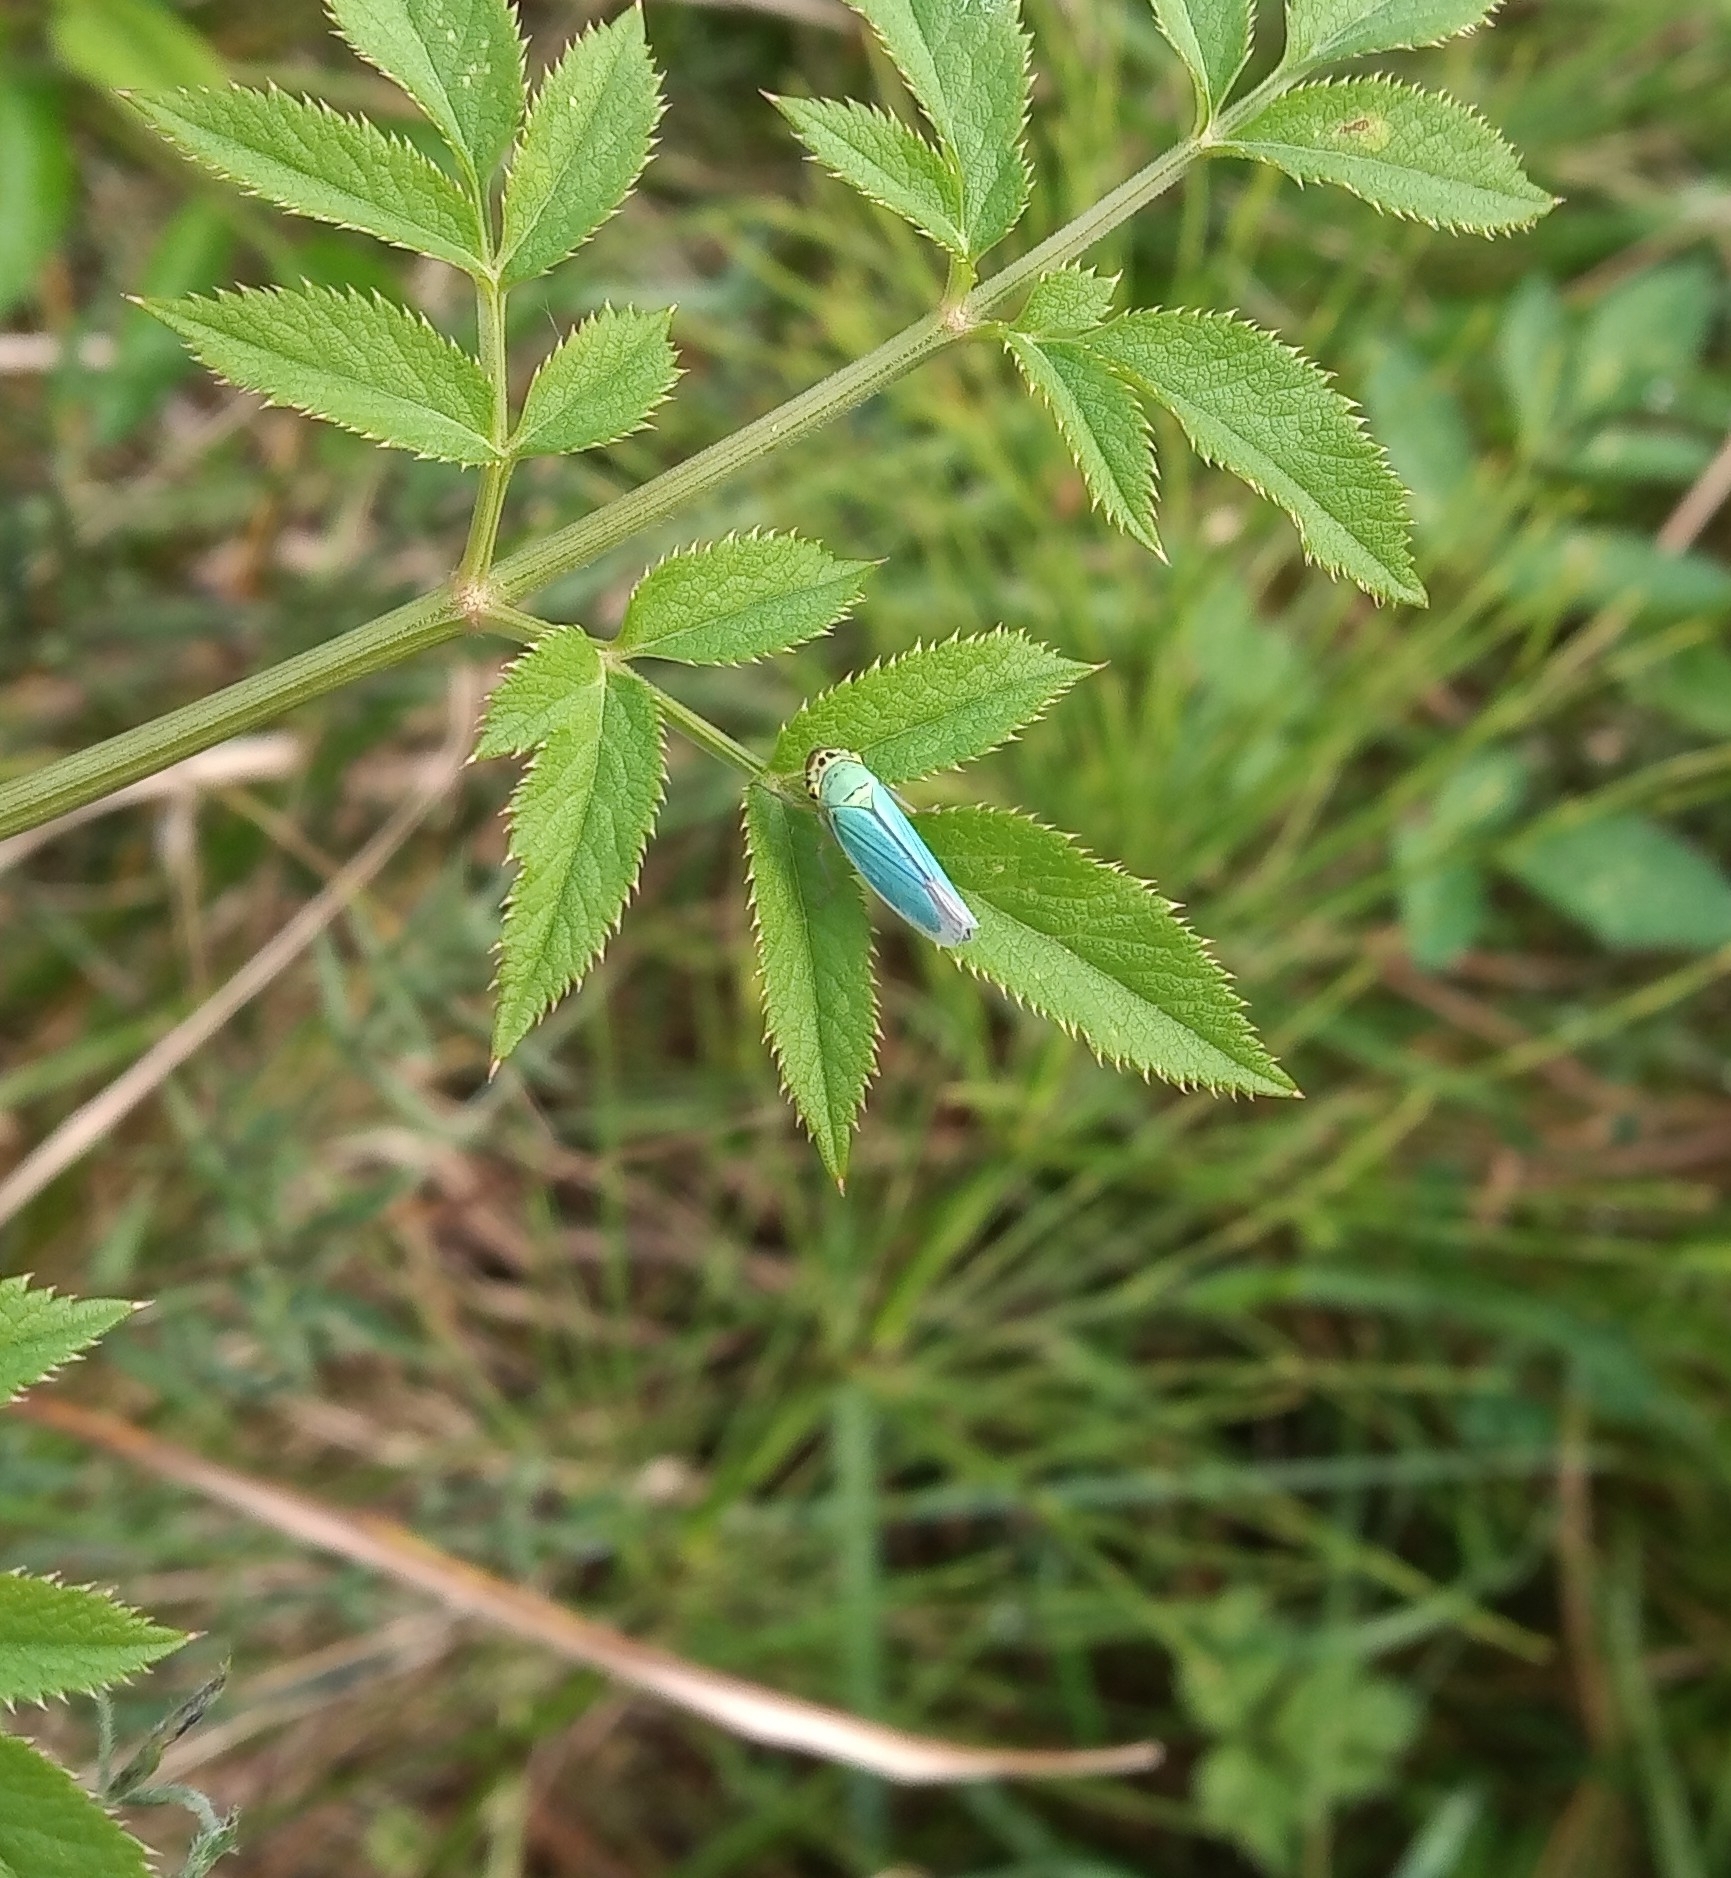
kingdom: Animalia
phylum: Arthropoda
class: Insecta
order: Hemiptera
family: Cicadellidae
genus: Cicadella
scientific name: Cicadella viridis
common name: Leafhopper
